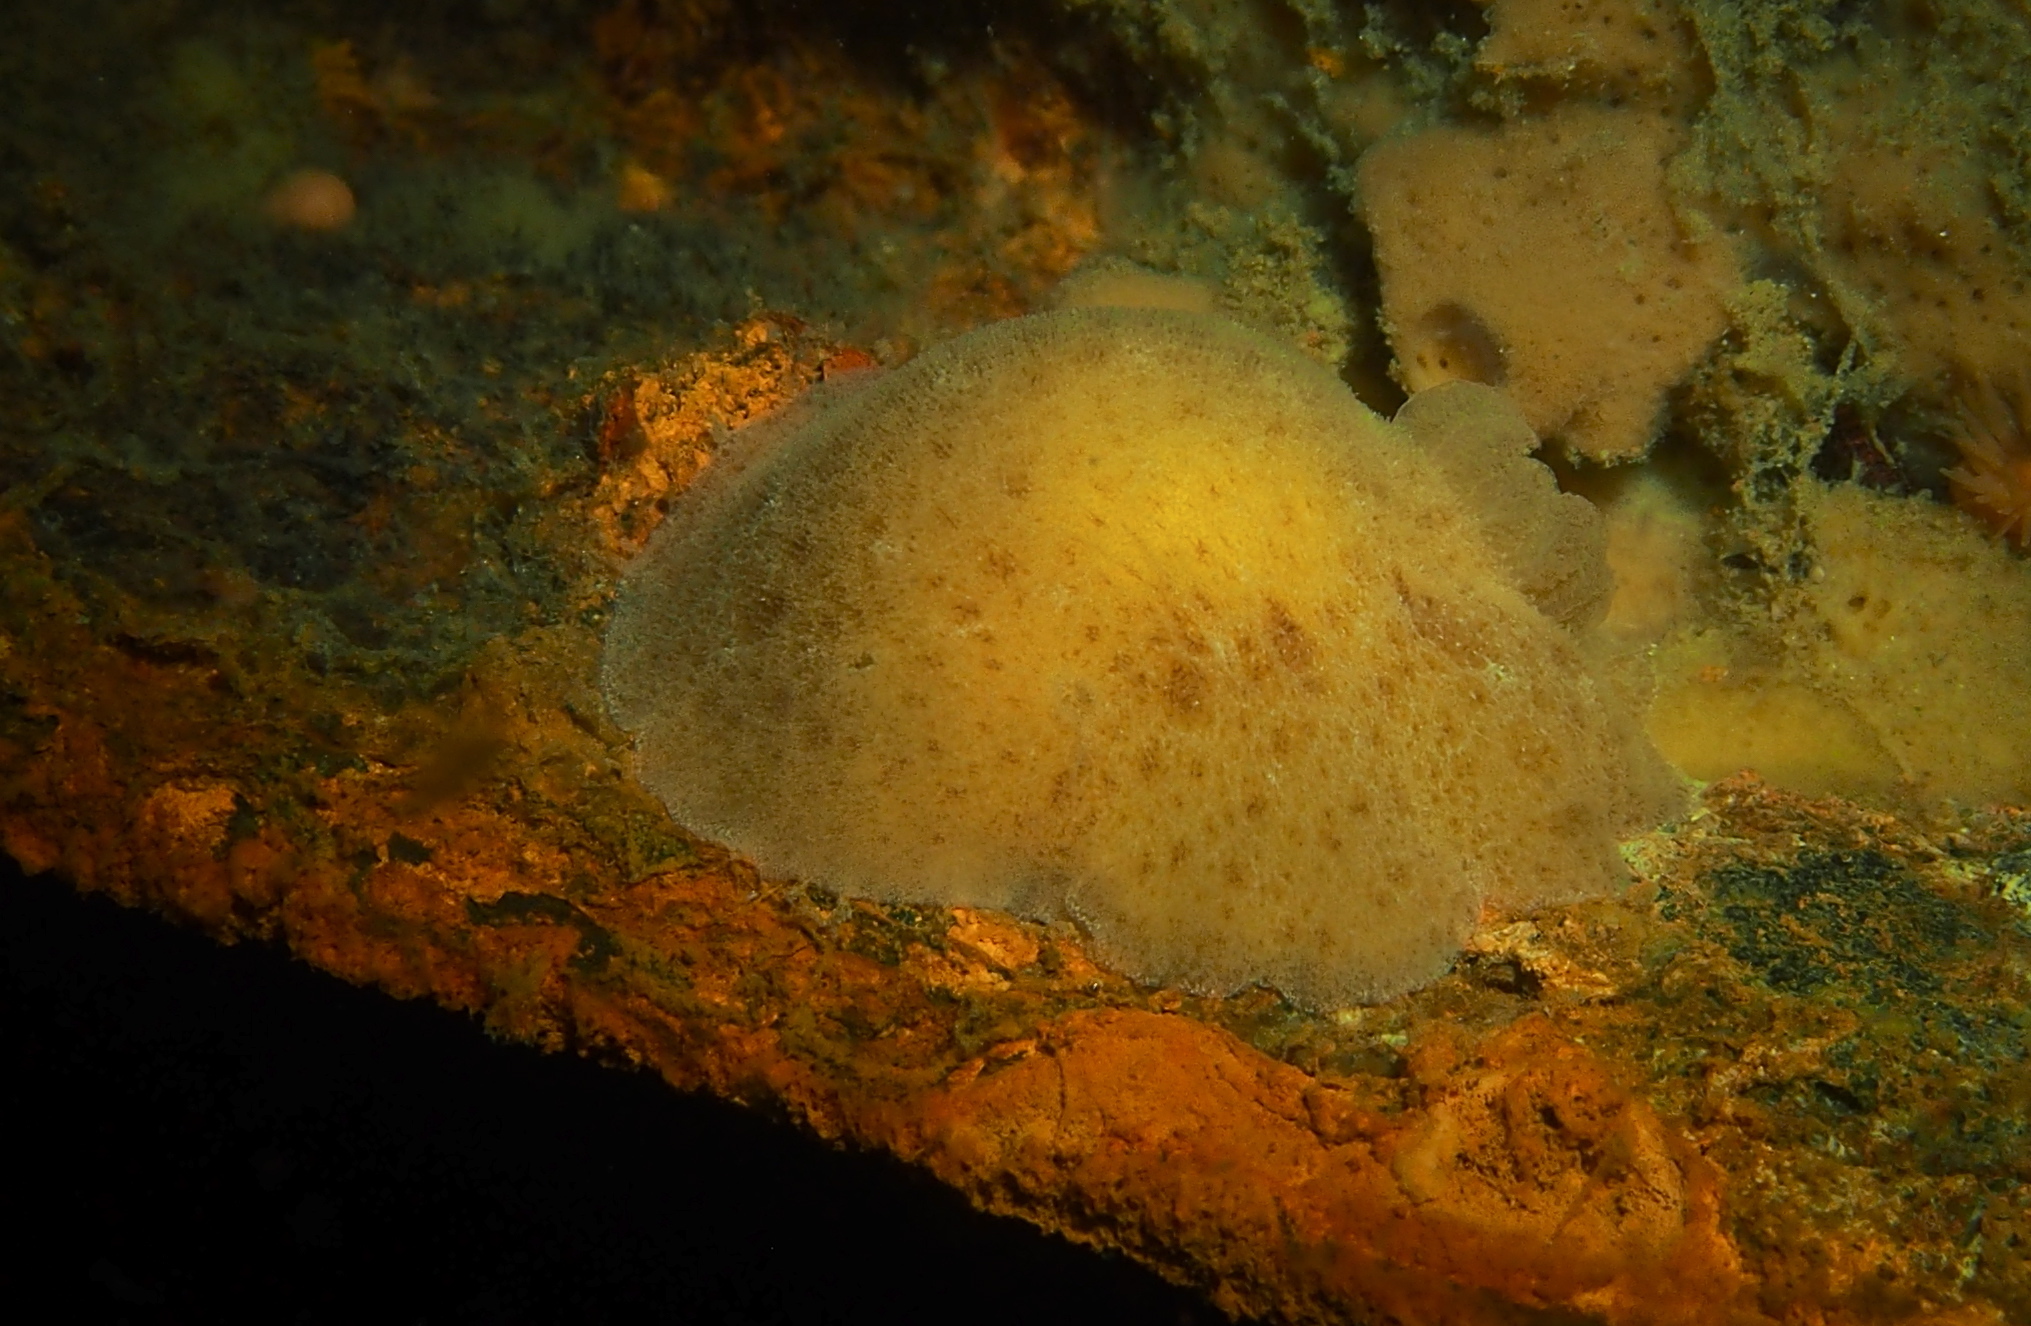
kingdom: Animalia
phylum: Mollusca
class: Gastropoda
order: Nudibranchia
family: Discodorididae
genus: Jorunna
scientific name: Jorunna tomentosa
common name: Grey sea slug
